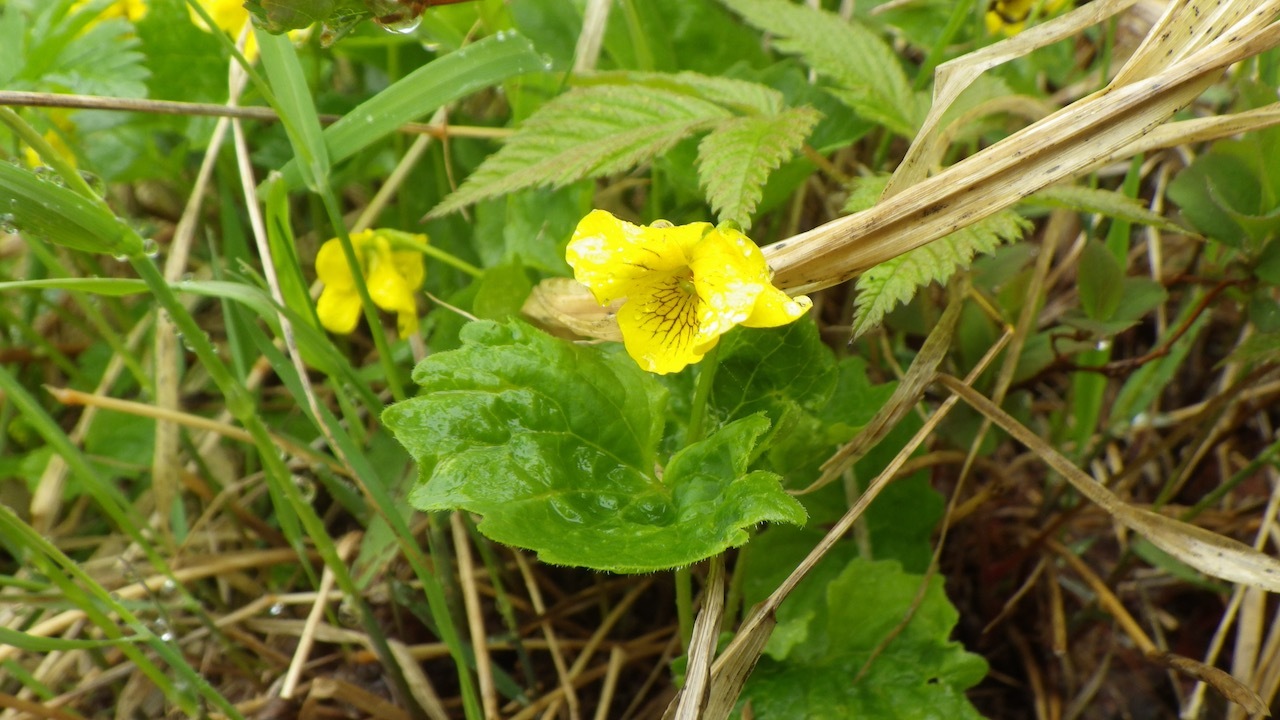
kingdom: Plantae
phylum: Tracheophyta
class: Magnoliopsida
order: Malpighiales
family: Violaceae
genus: Viola
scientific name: Viola alliariifolia
